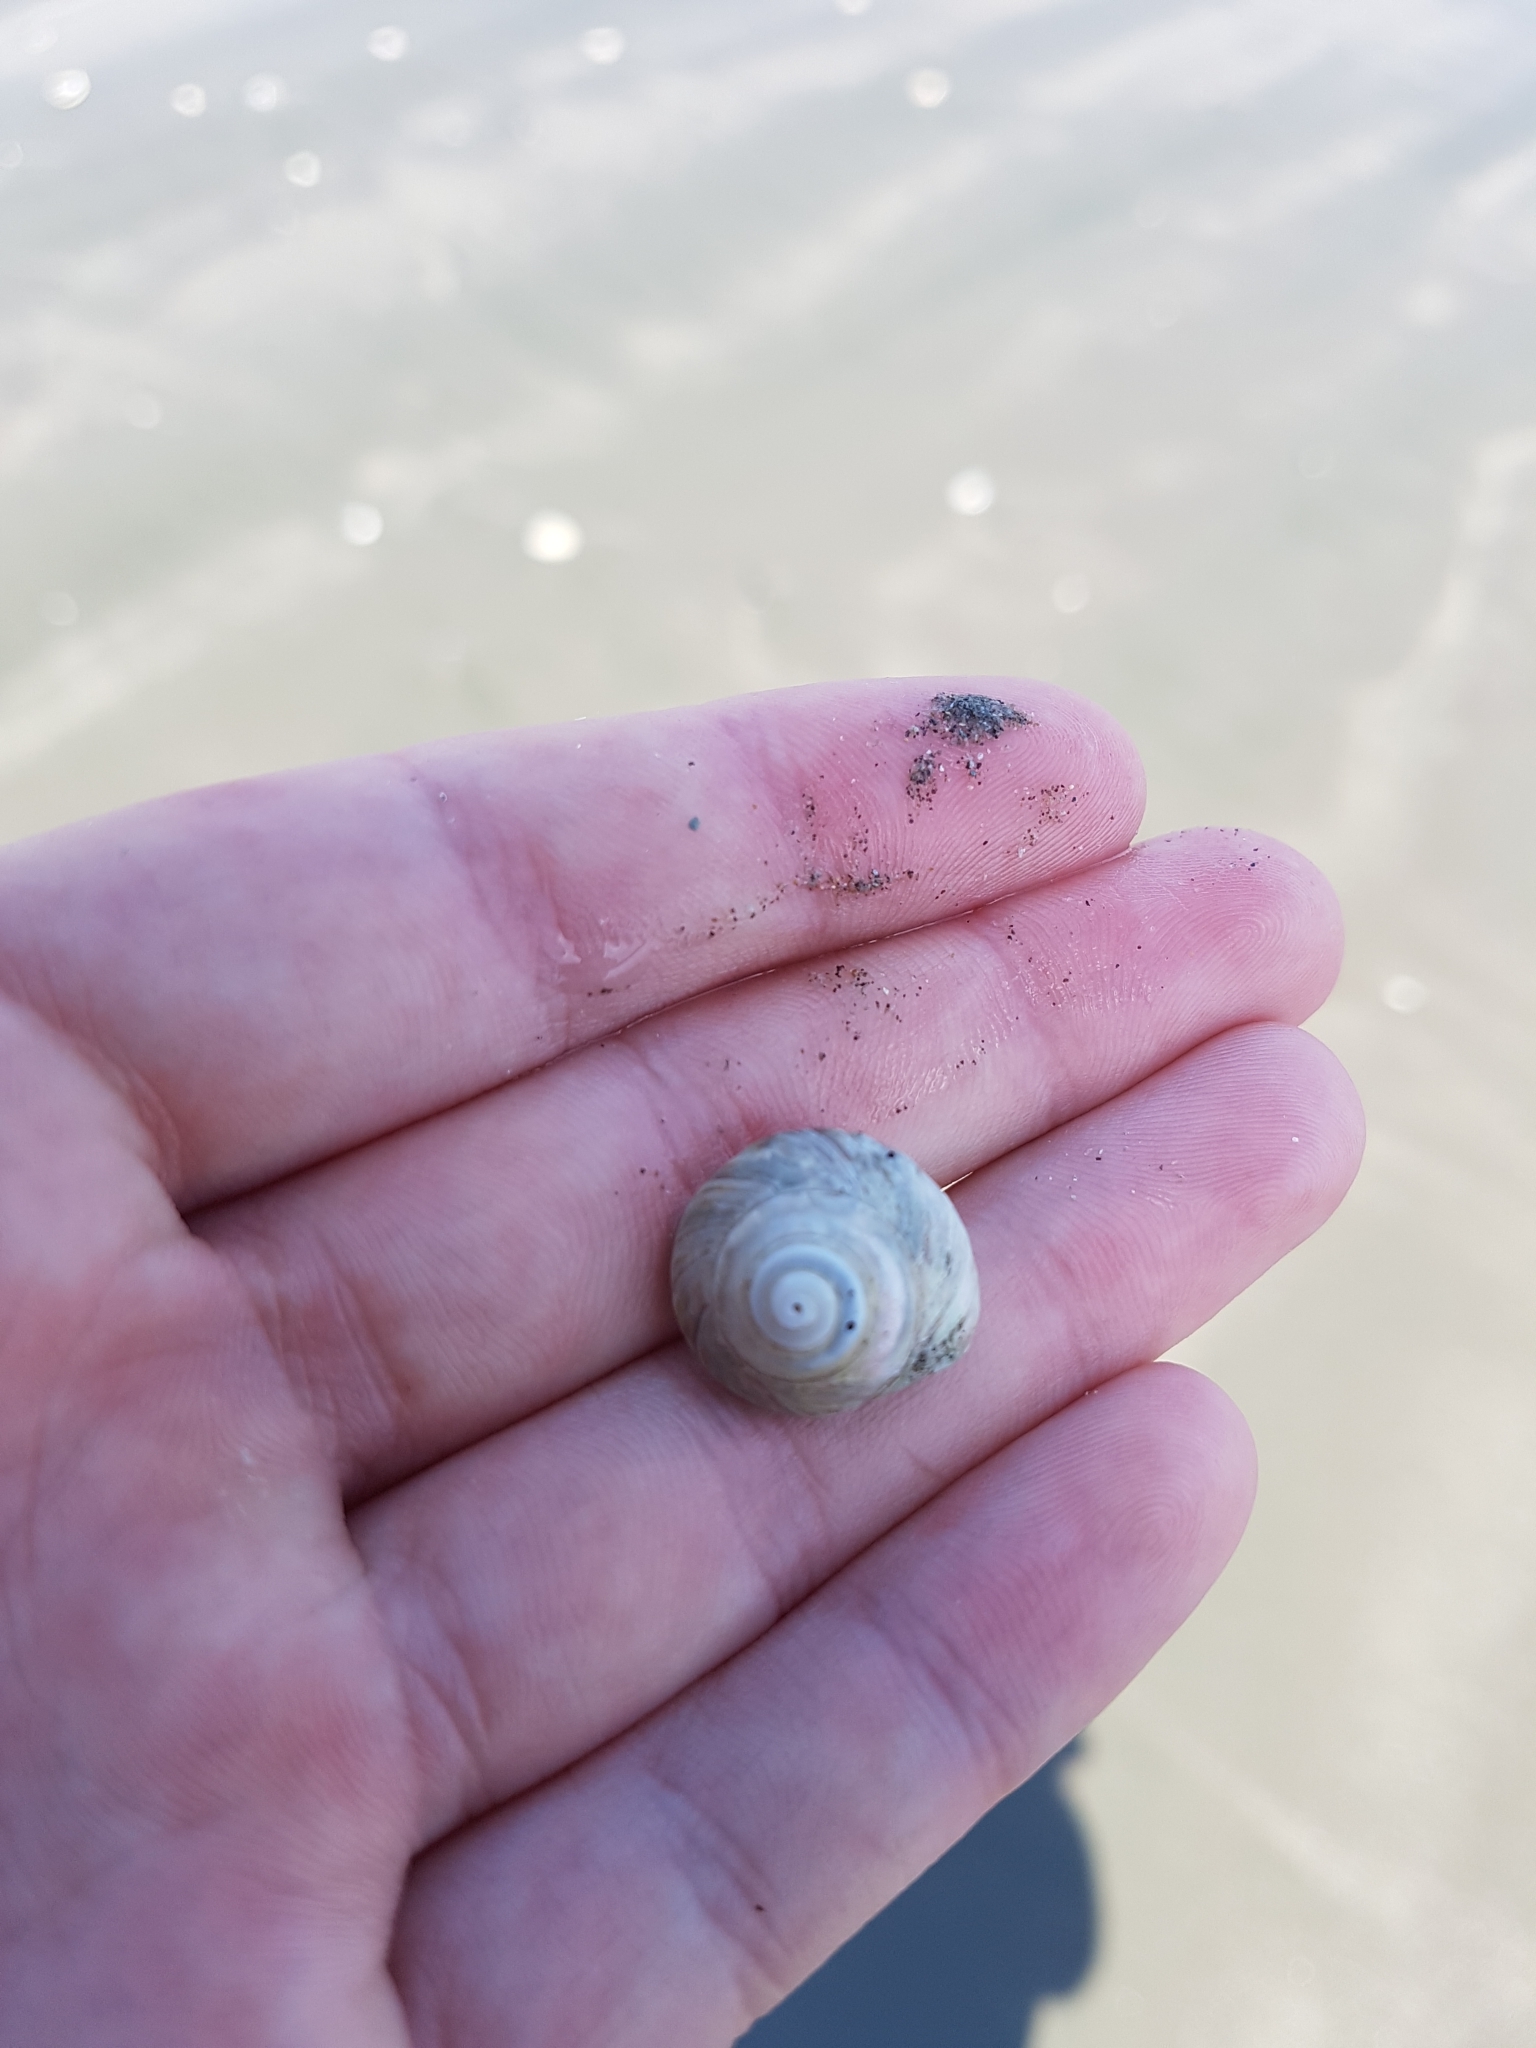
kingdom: Animalia
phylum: Mollusca
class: Gastropoda
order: Trochida
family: Trochidae
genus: Zethalia
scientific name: Zethalia zelandica
